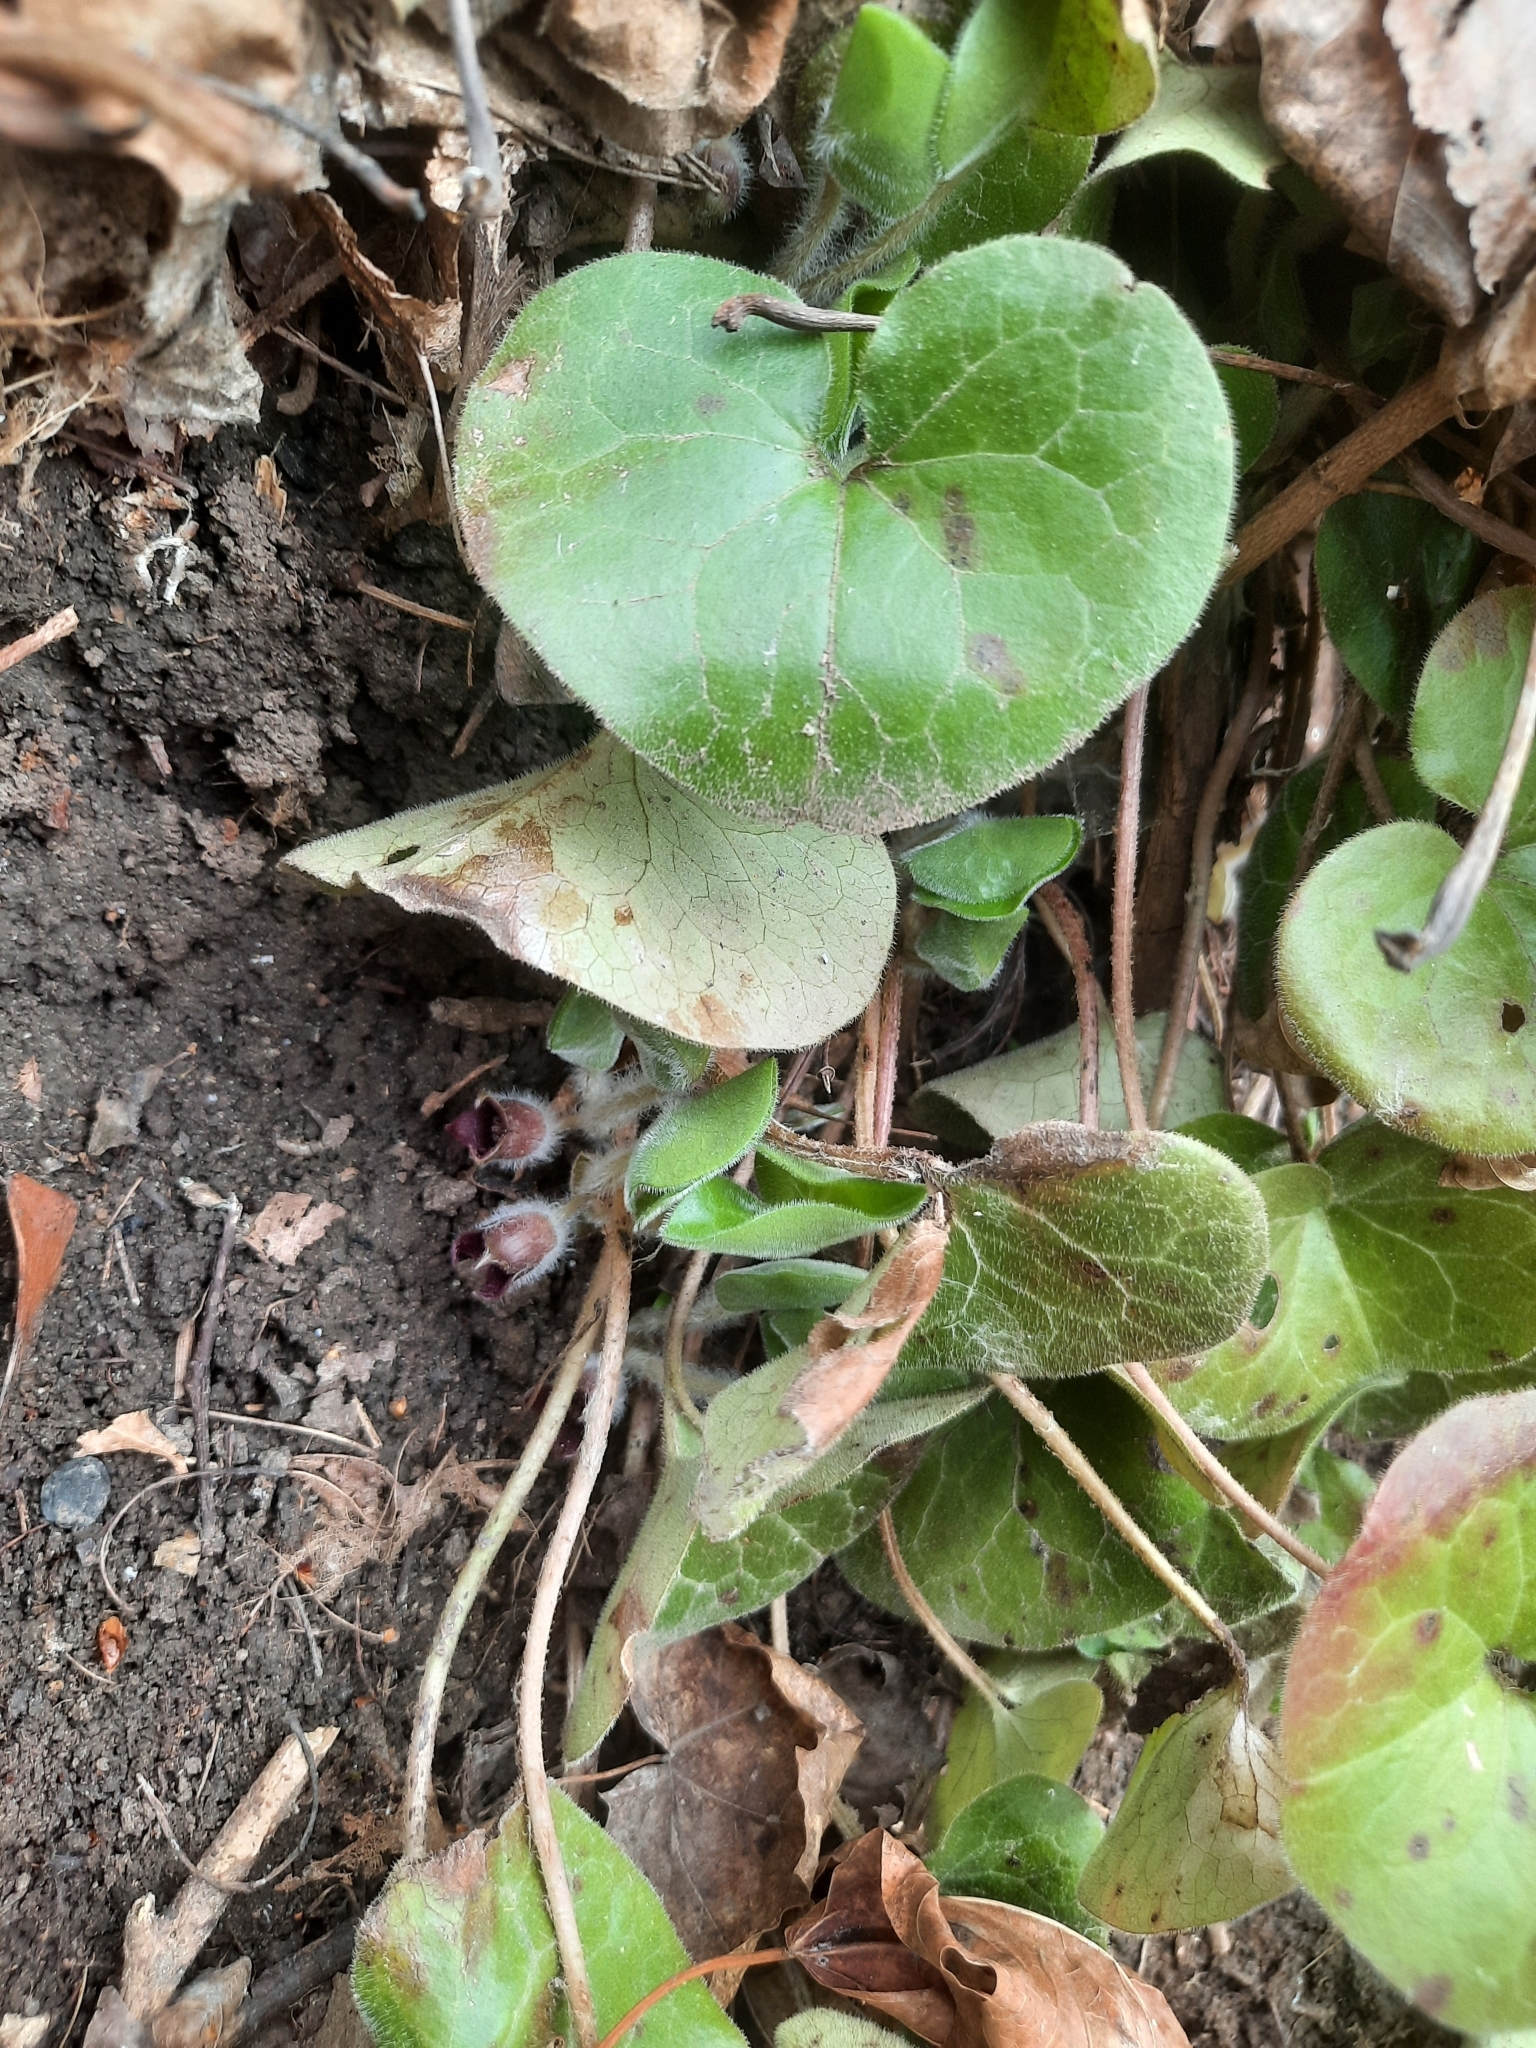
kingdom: Plantae
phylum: Tracheophyta
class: Magnoliopsida
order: Piperales
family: Aristolochiaceae
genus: Asarum
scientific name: Asarum europaeum
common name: Asarabacca
